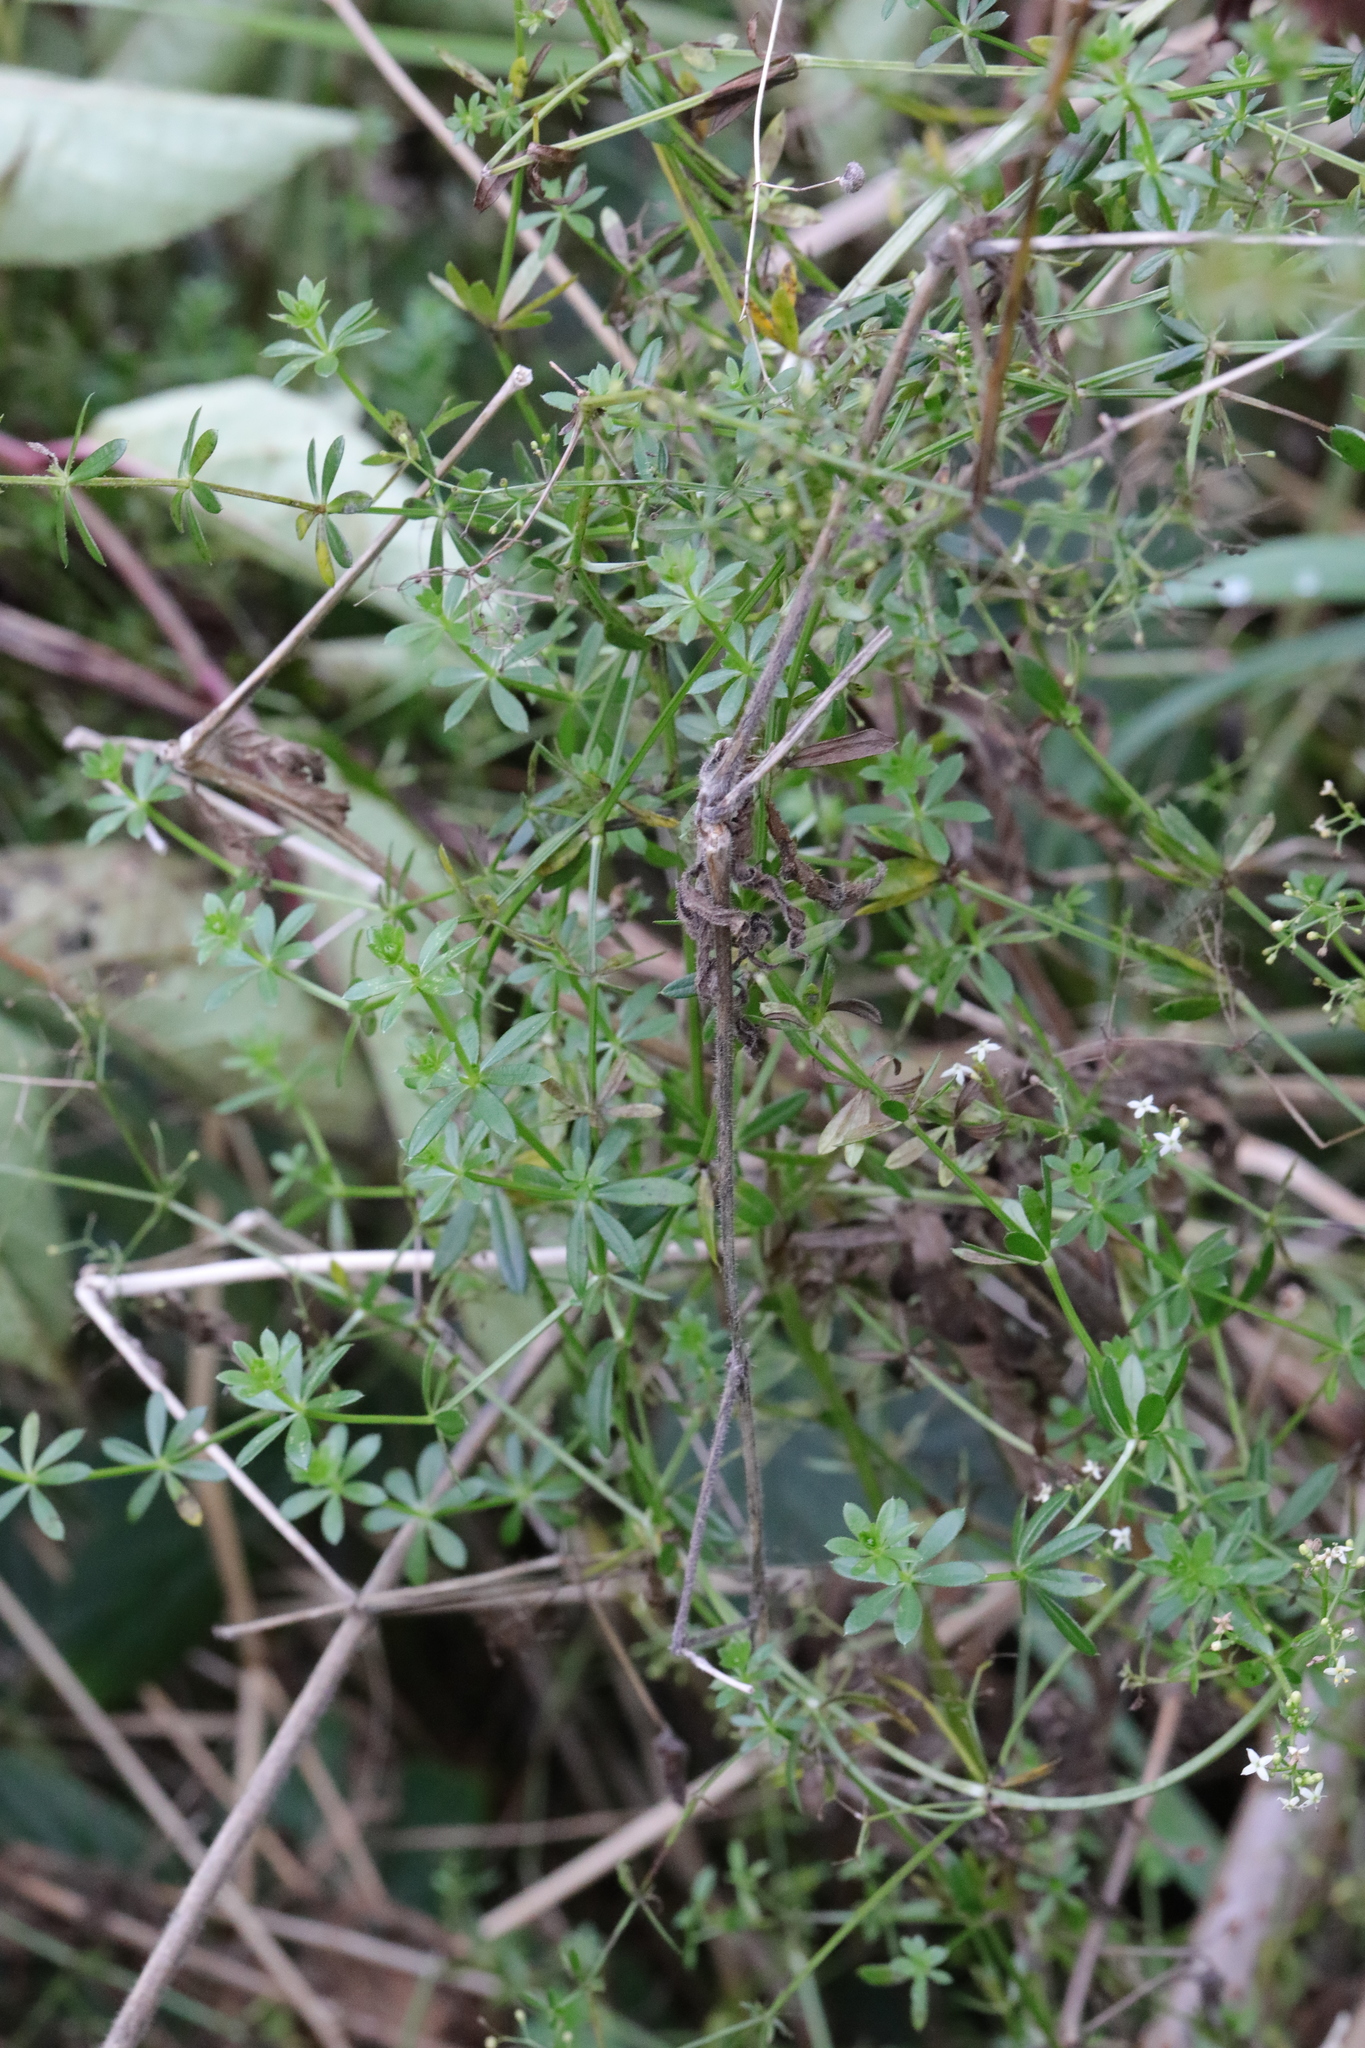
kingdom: Plantae
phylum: Tracheophyta
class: Magnoliopsida
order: Gentianales
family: Rubiaceae
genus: Rubia
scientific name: Rubia peregrina
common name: Wild madder
